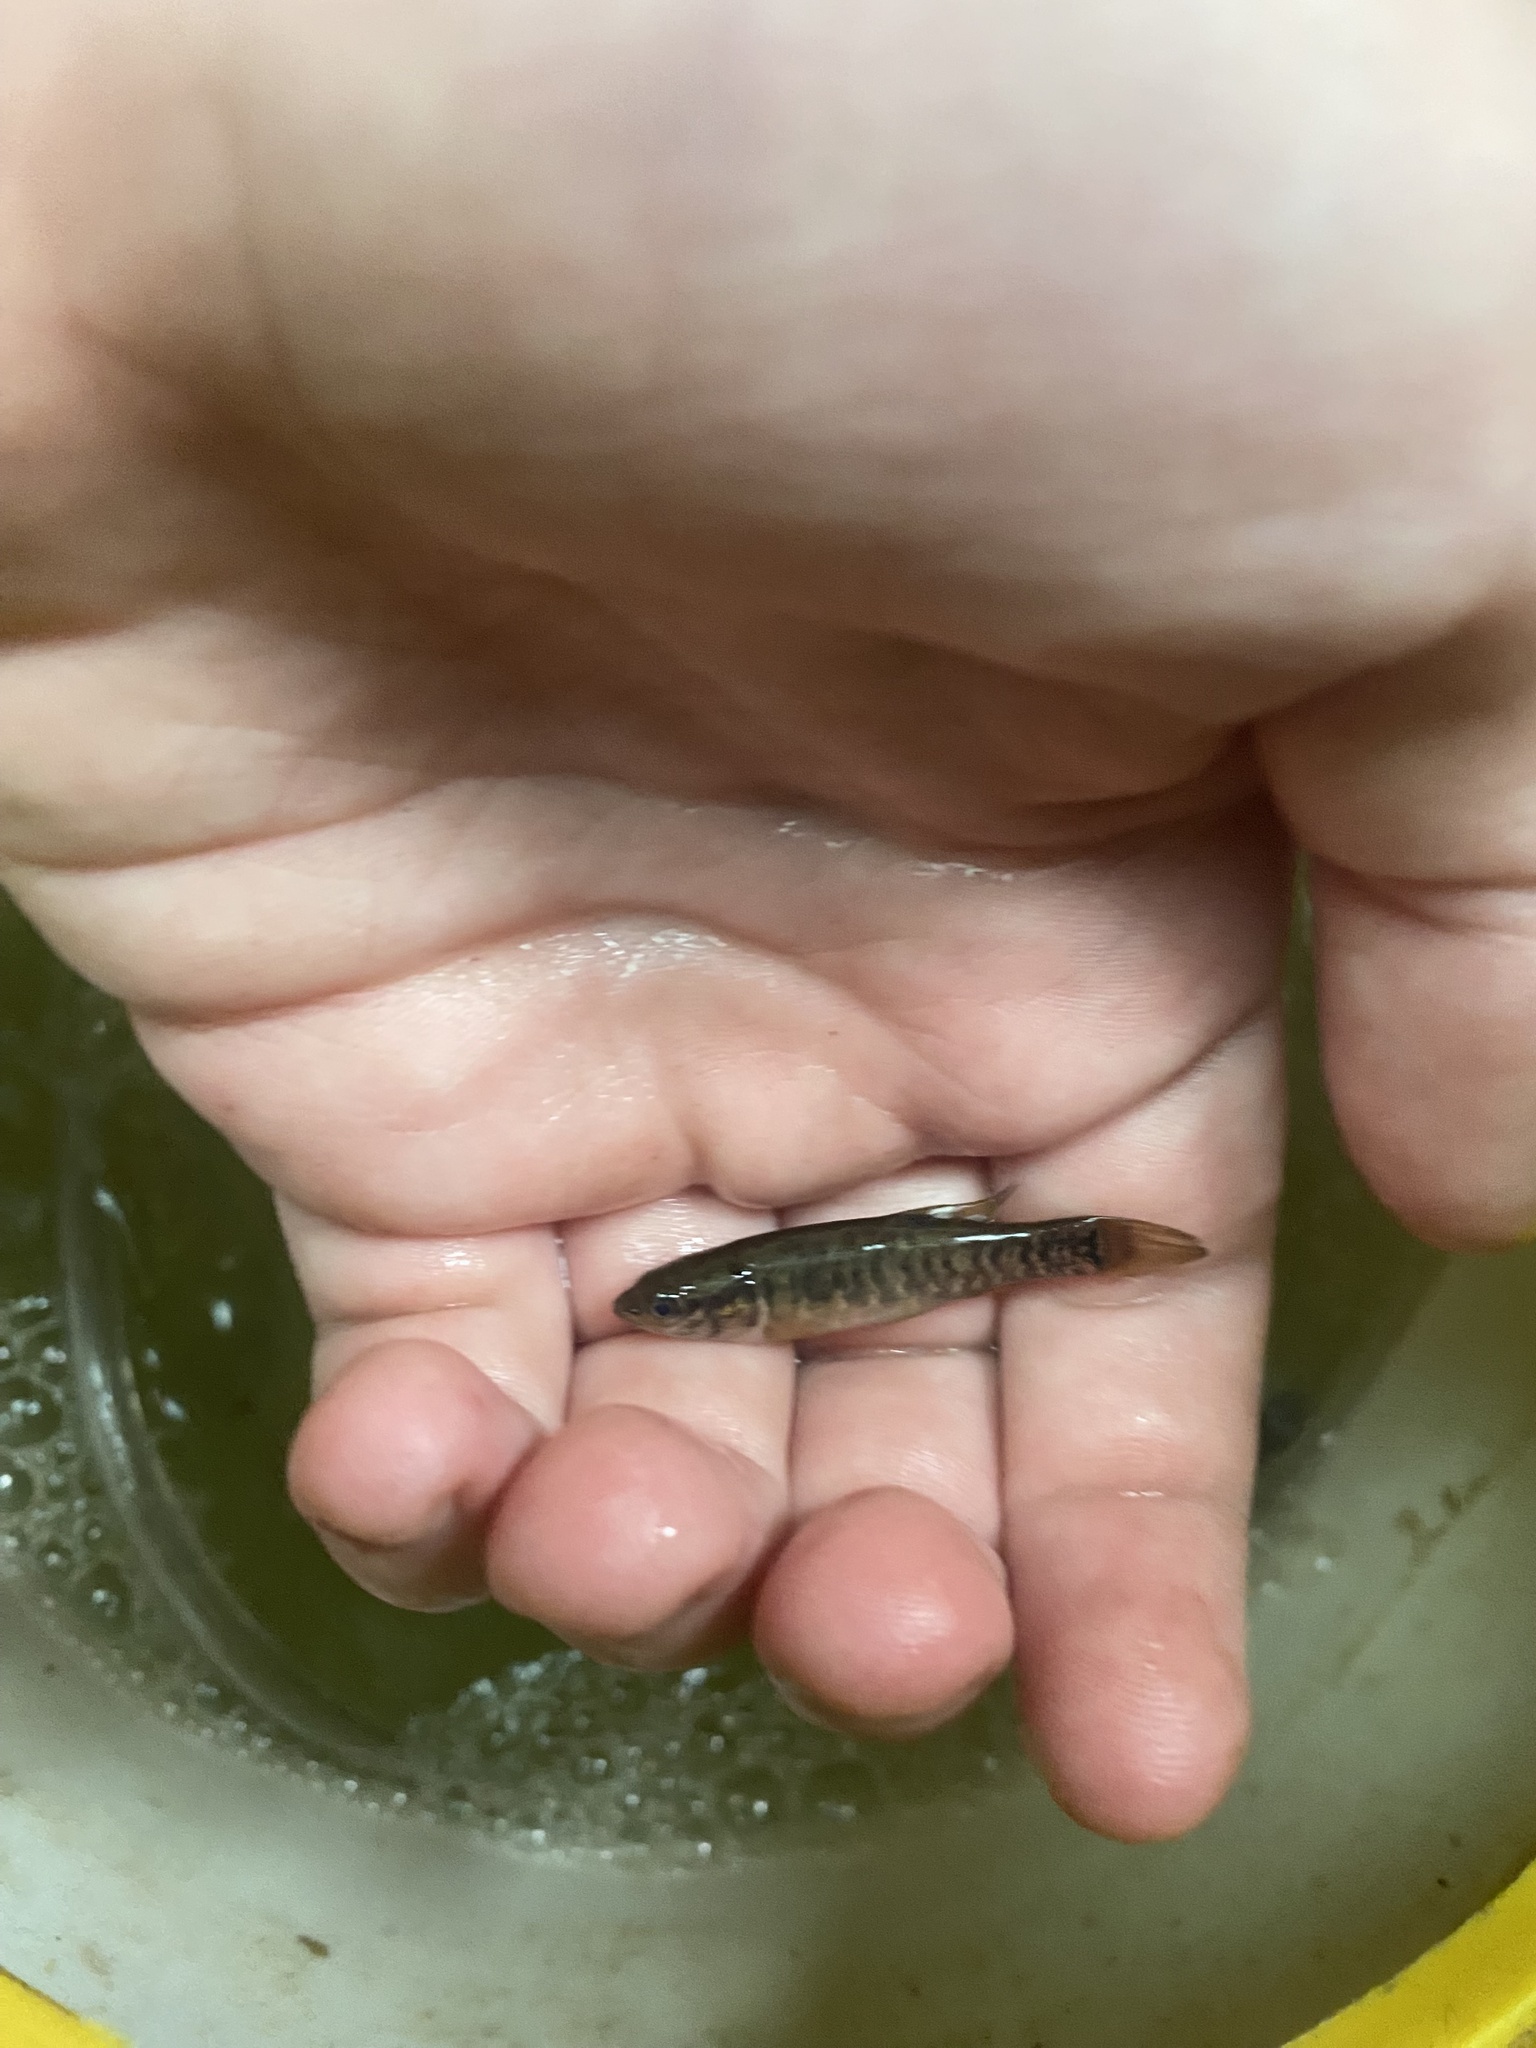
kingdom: Animalia
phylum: Chordata
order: Esociformes
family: Umbridae
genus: Umbra
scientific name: Umbra limi
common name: Central mudminnow
